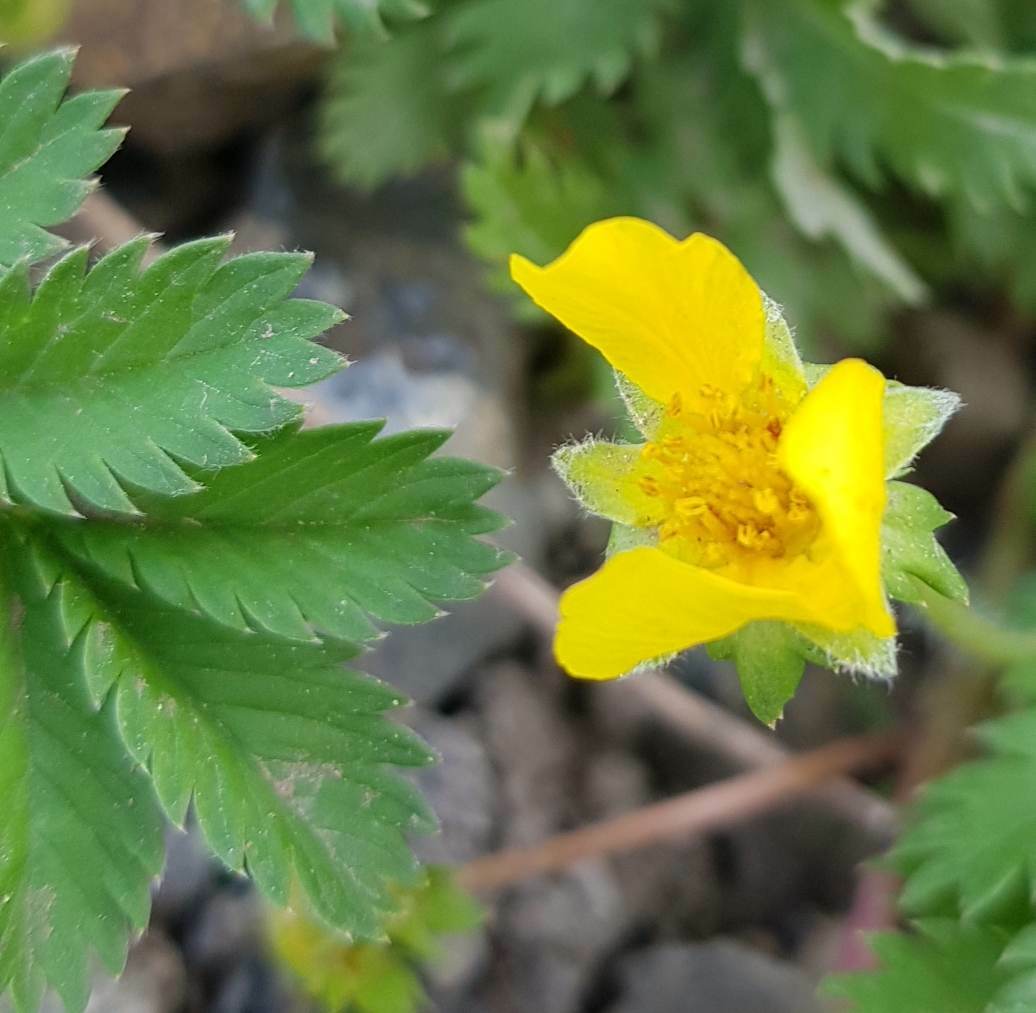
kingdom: Plantae
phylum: Tracheophyta
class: Magnoliopsida
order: Rosales
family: Rosaceae
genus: Argentina
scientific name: Argentina anserina
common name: Common silverweed
